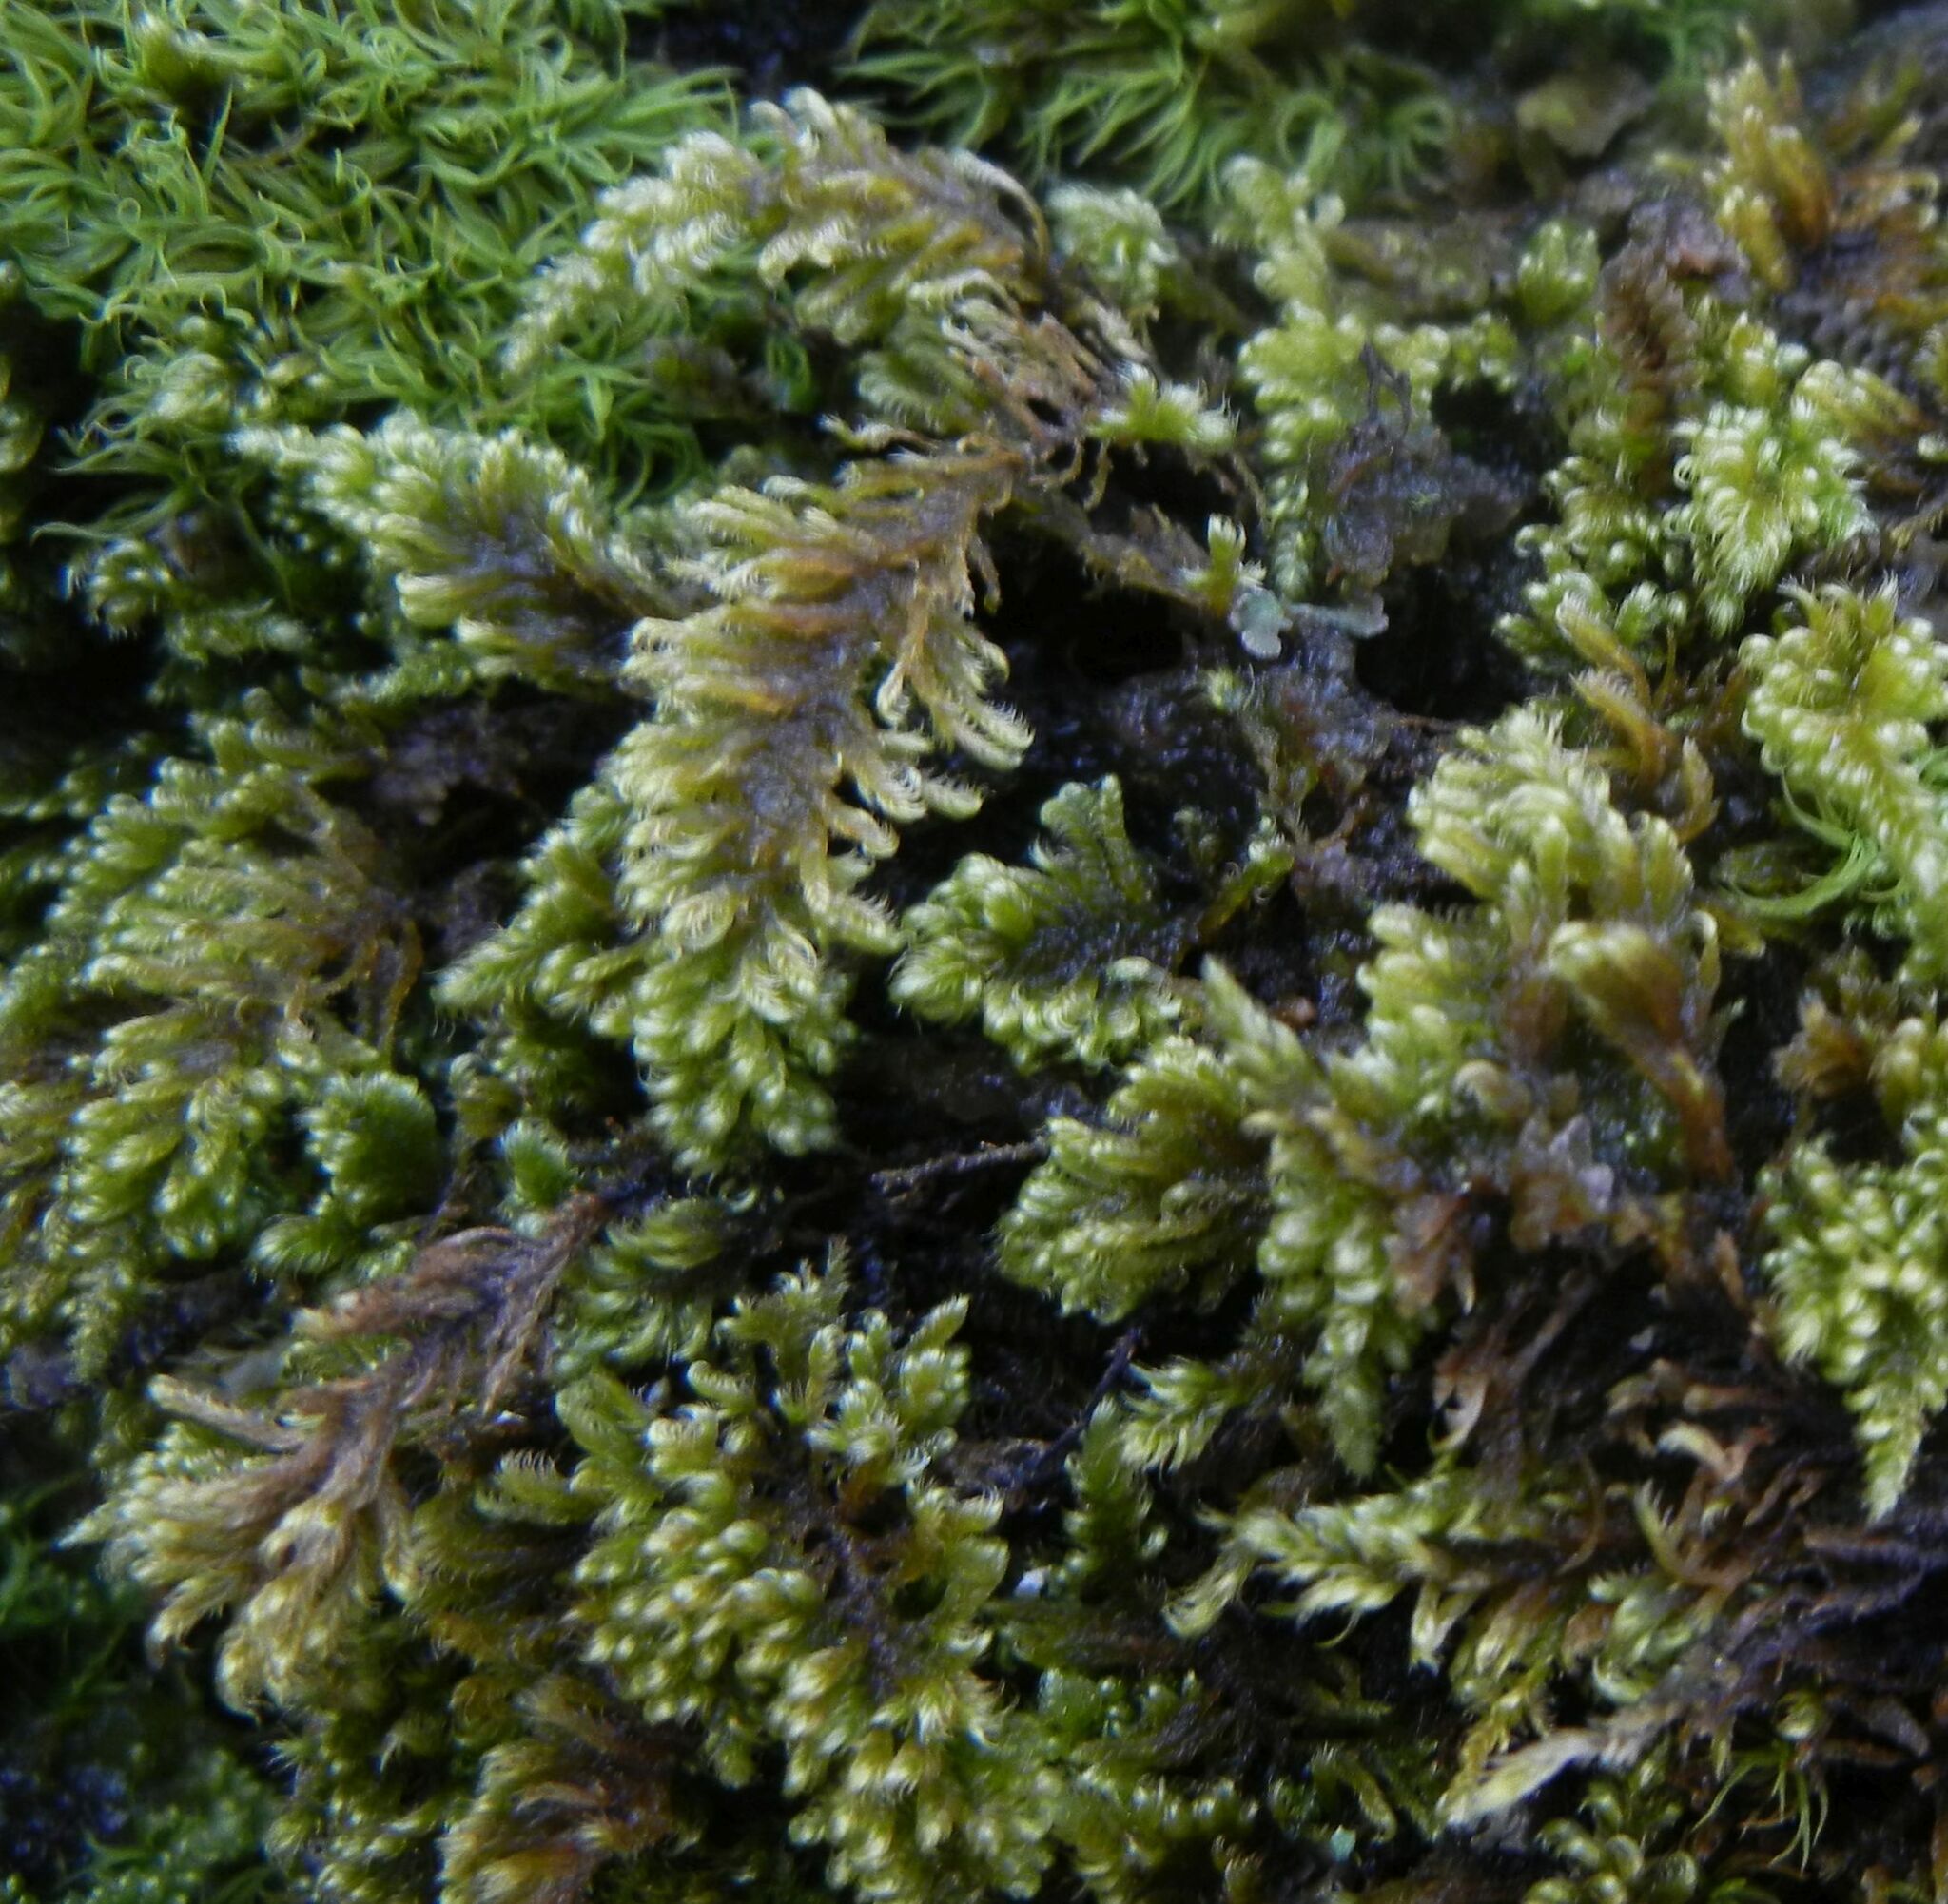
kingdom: Plantae
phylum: Bryophyta
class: Bryopsida
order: Hypnales
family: Myuriaceae
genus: Ctenidium
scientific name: Ctenidium molluscum
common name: Chalk comb-moss
